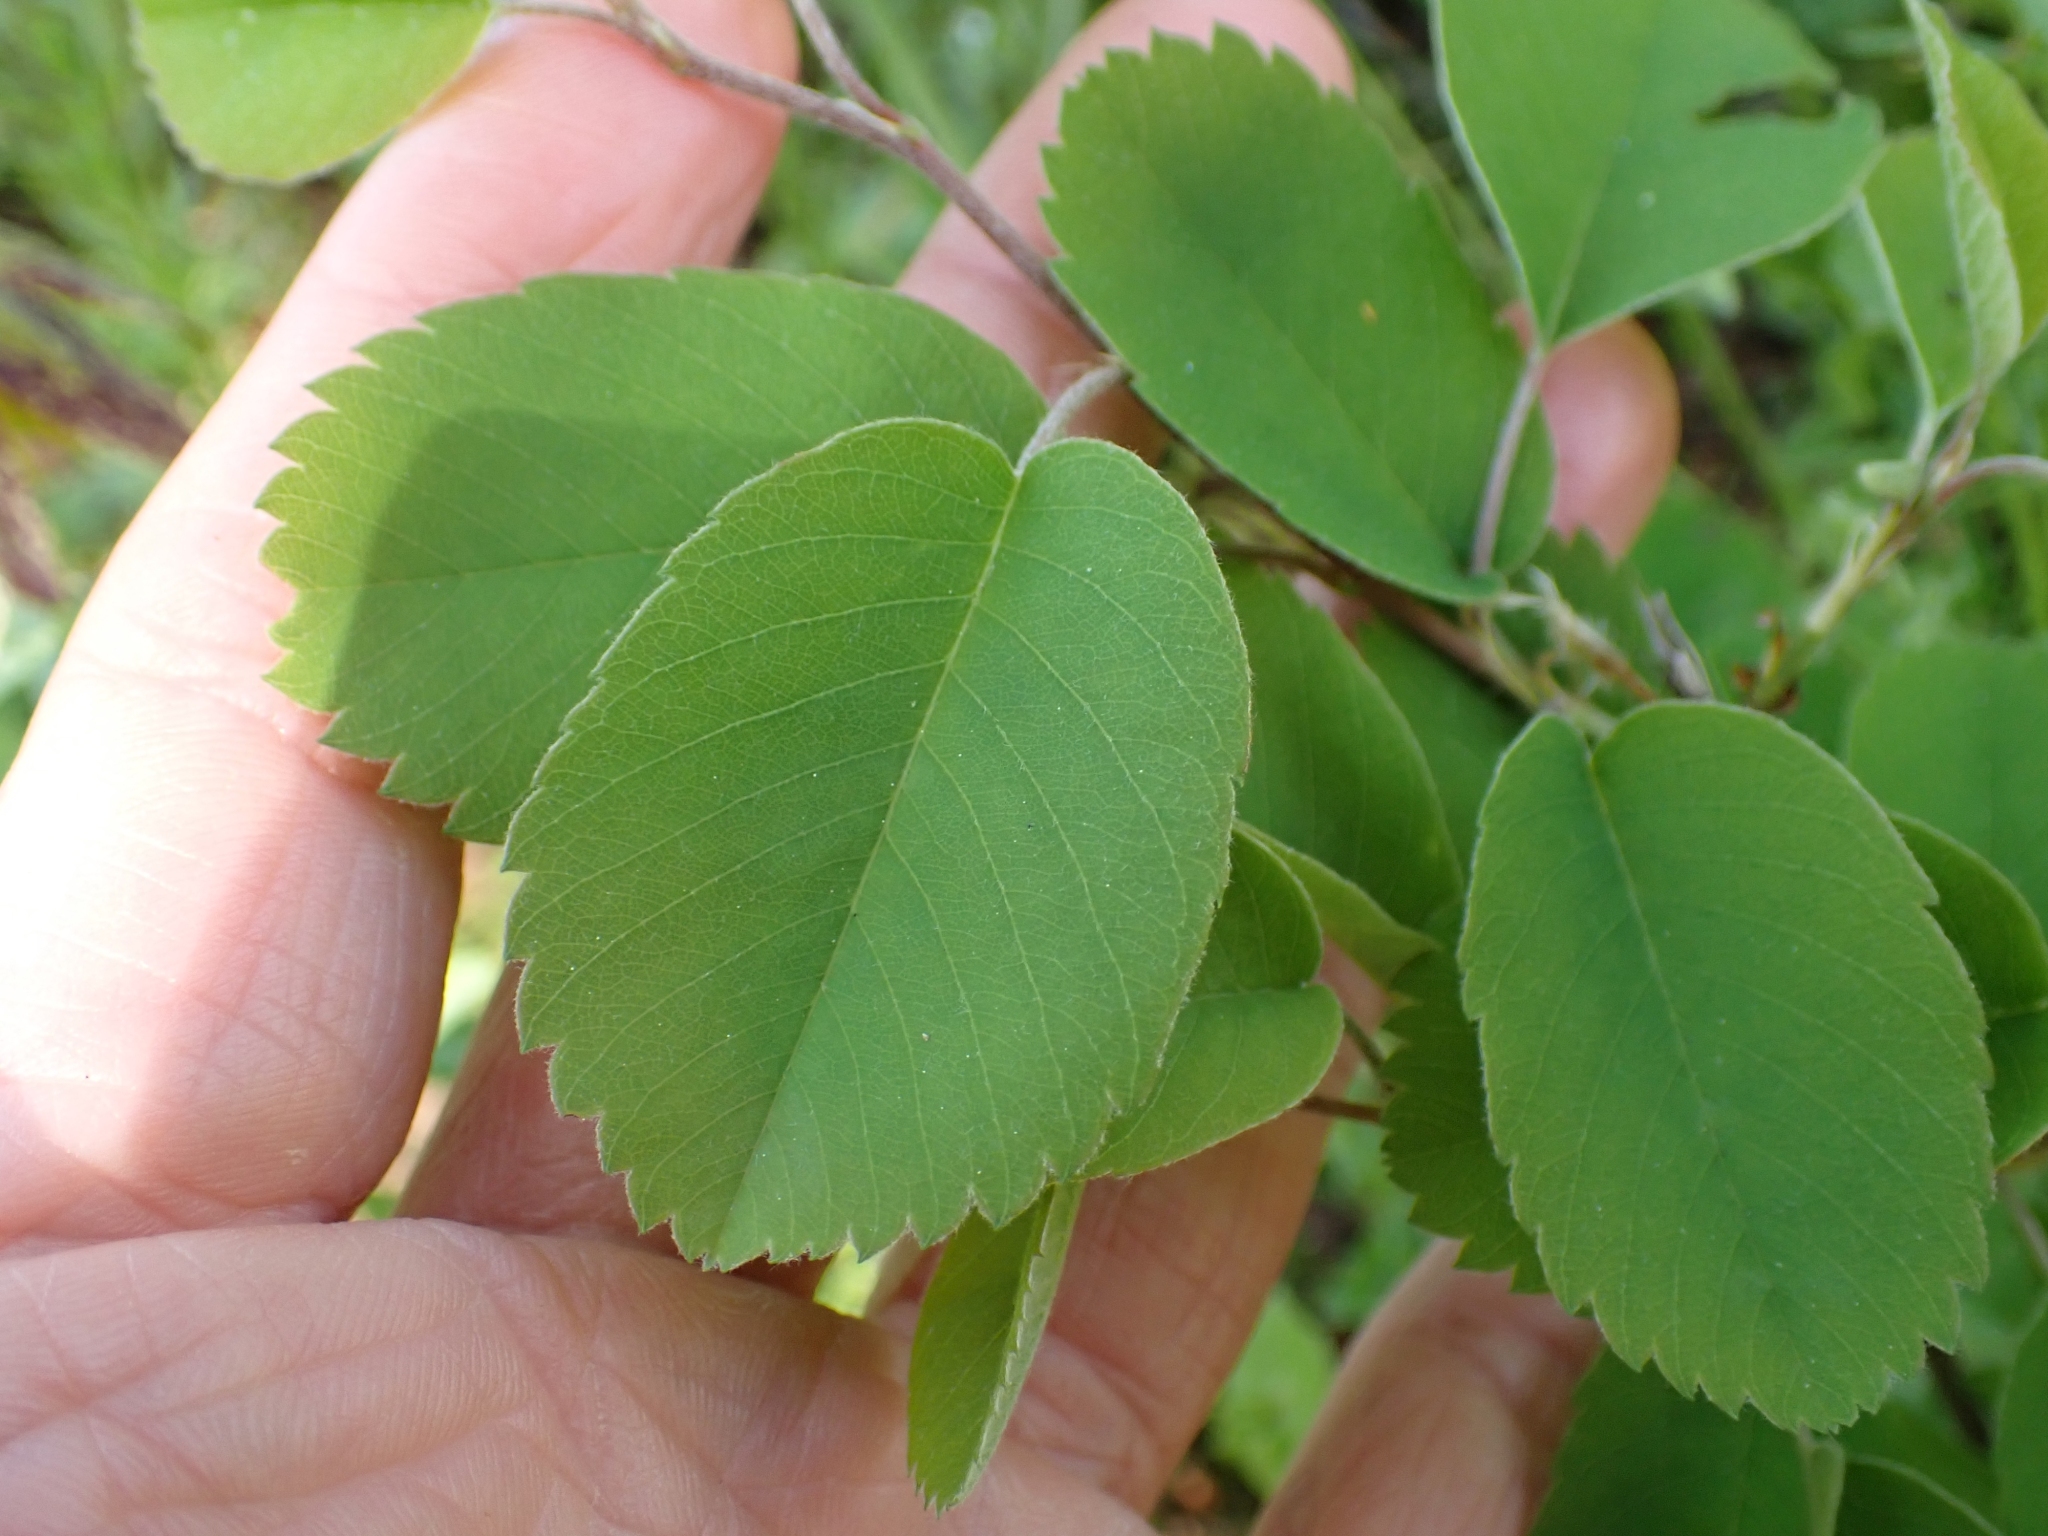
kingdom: Plantae
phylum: Tracheophyta
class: Magnoliopsida
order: Rosales
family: Rosaceae
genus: Amelanchier
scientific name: Amelanchier alnifolia
